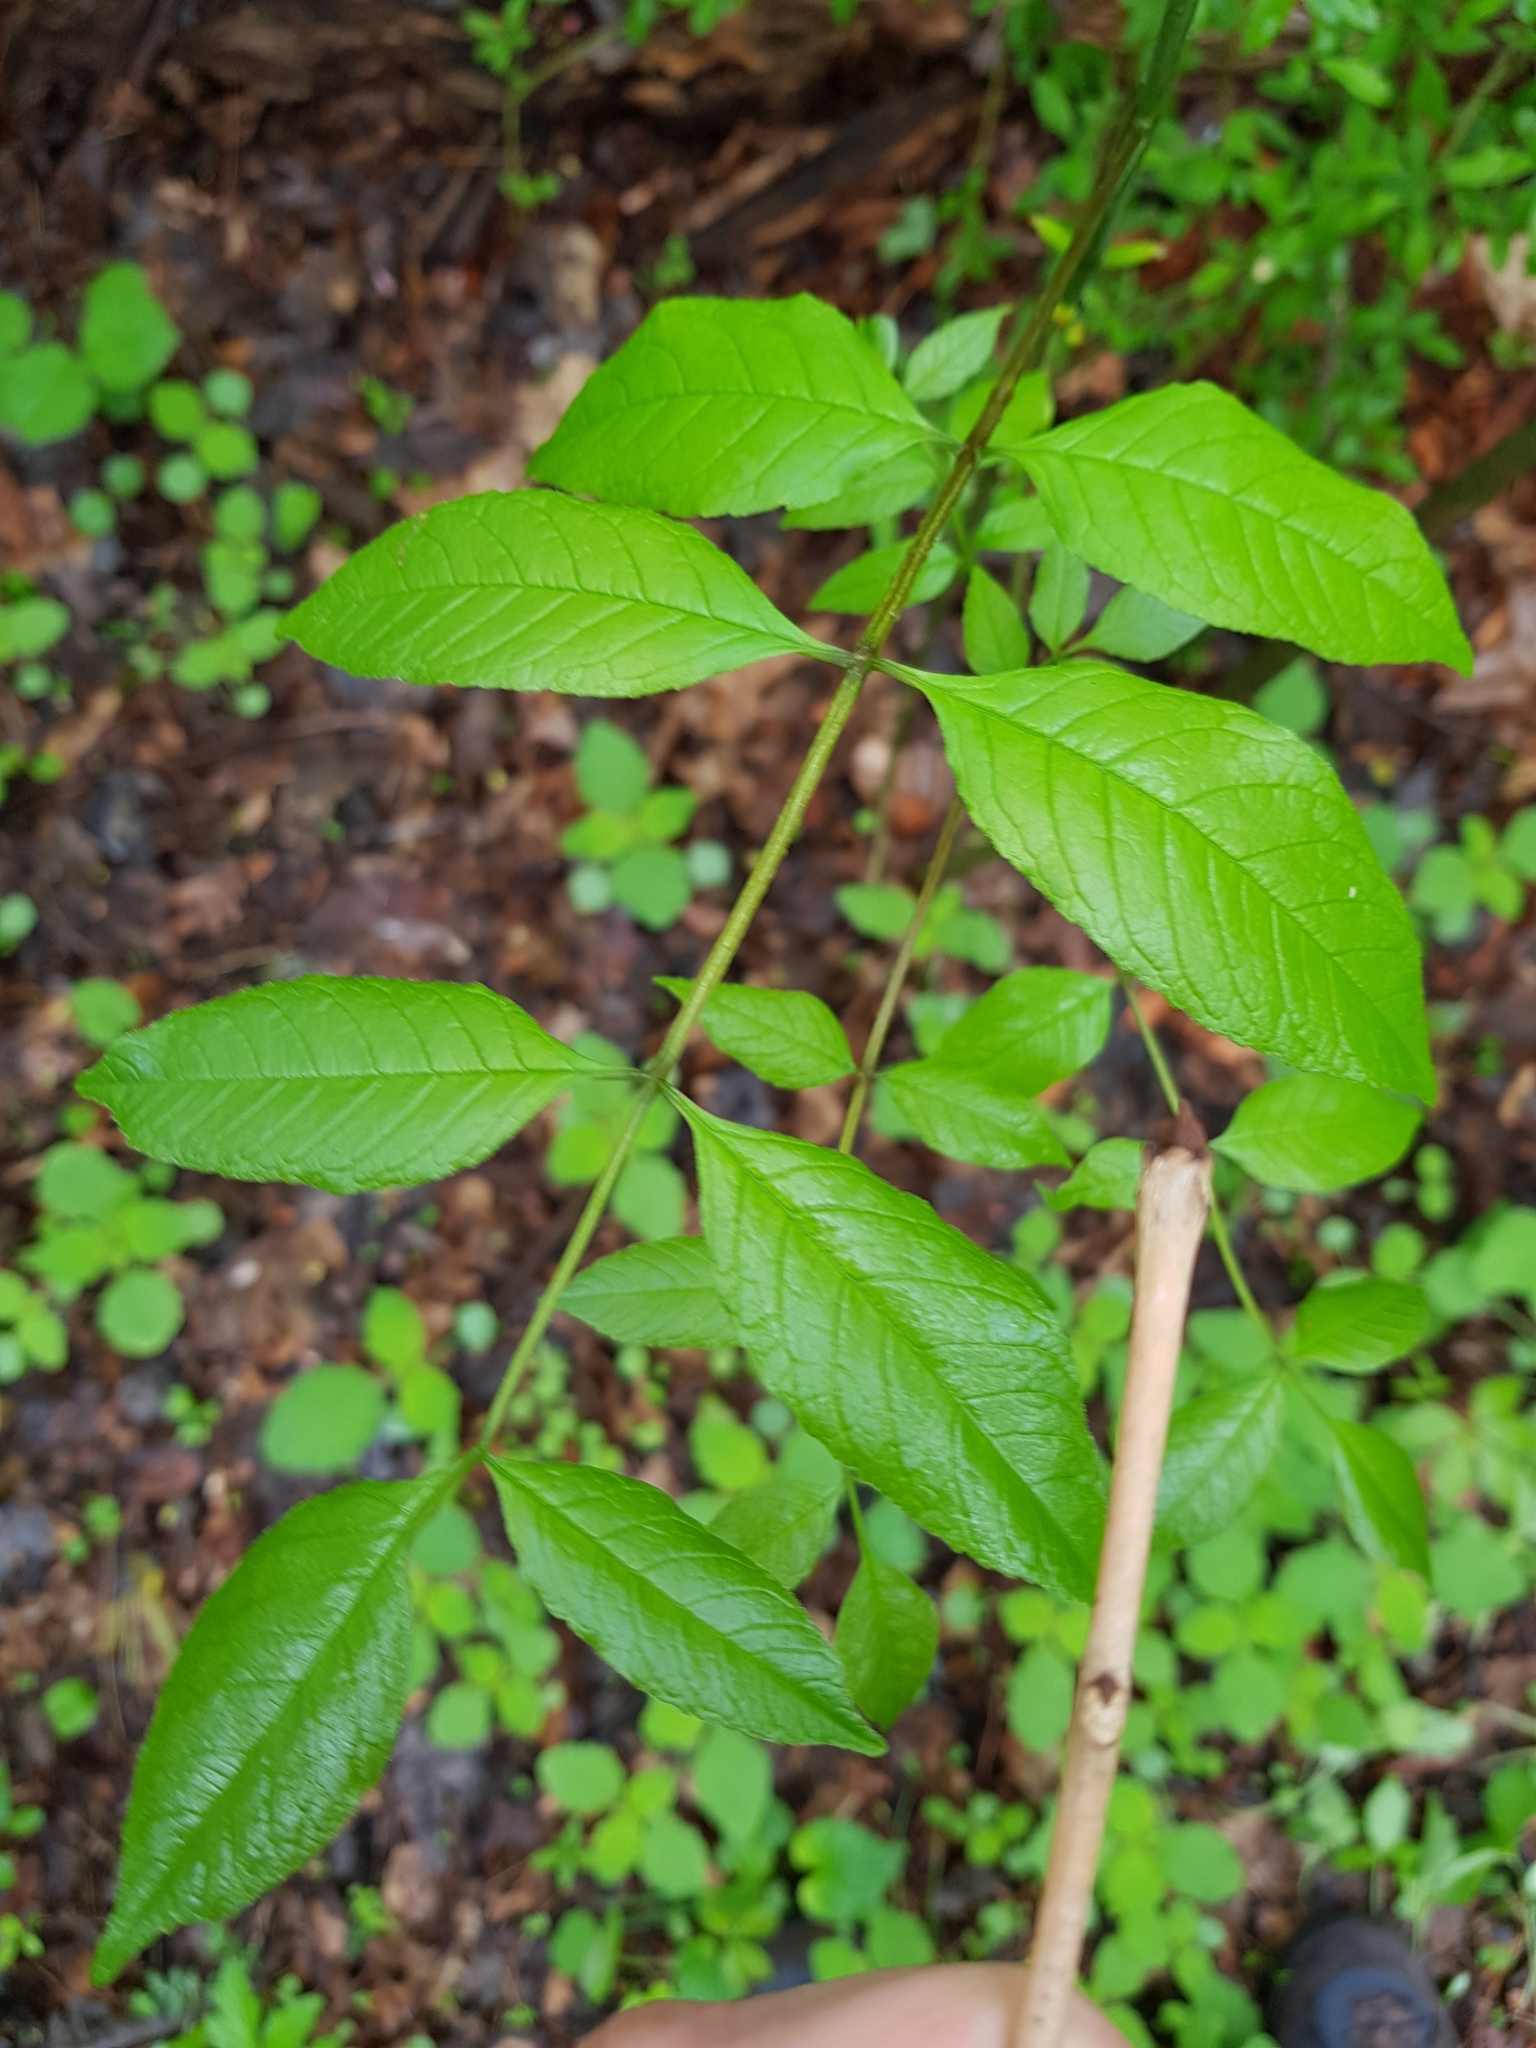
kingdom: Plantae
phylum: Tracheophyta
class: Magnoliopsida
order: Lamiales
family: Oleaceae
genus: Fraxinus
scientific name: Fraxinus pennsylvanica
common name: Green ash
